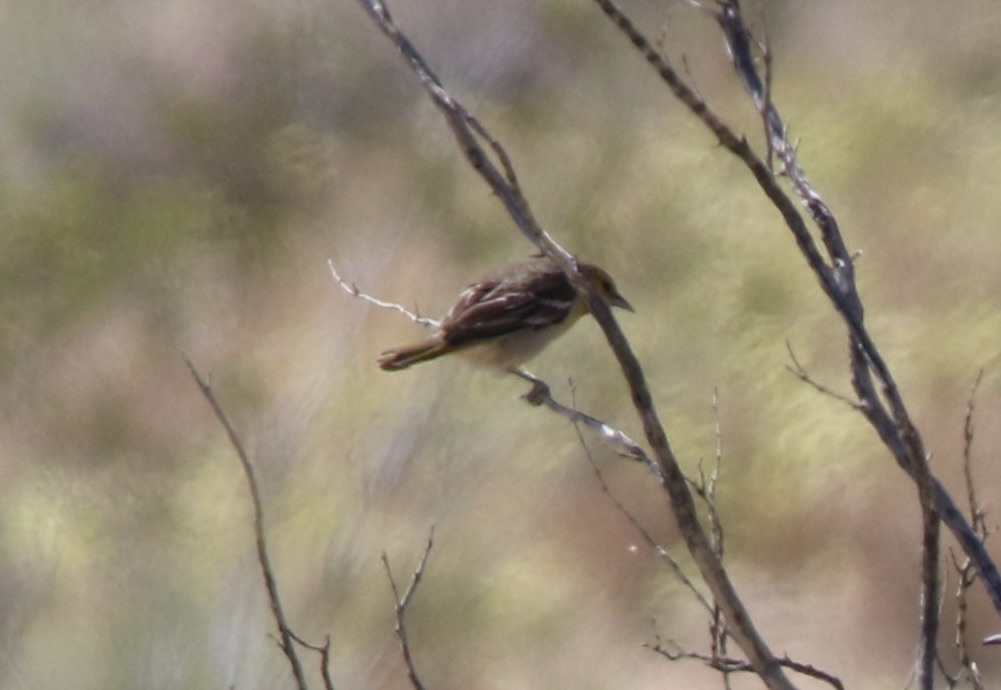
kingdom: Animalia
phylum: Chordata
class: Aves
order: Passeriformes
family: Icteridae
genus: Icterus
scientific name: Icterus bullockii
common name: Bullock's oriole
